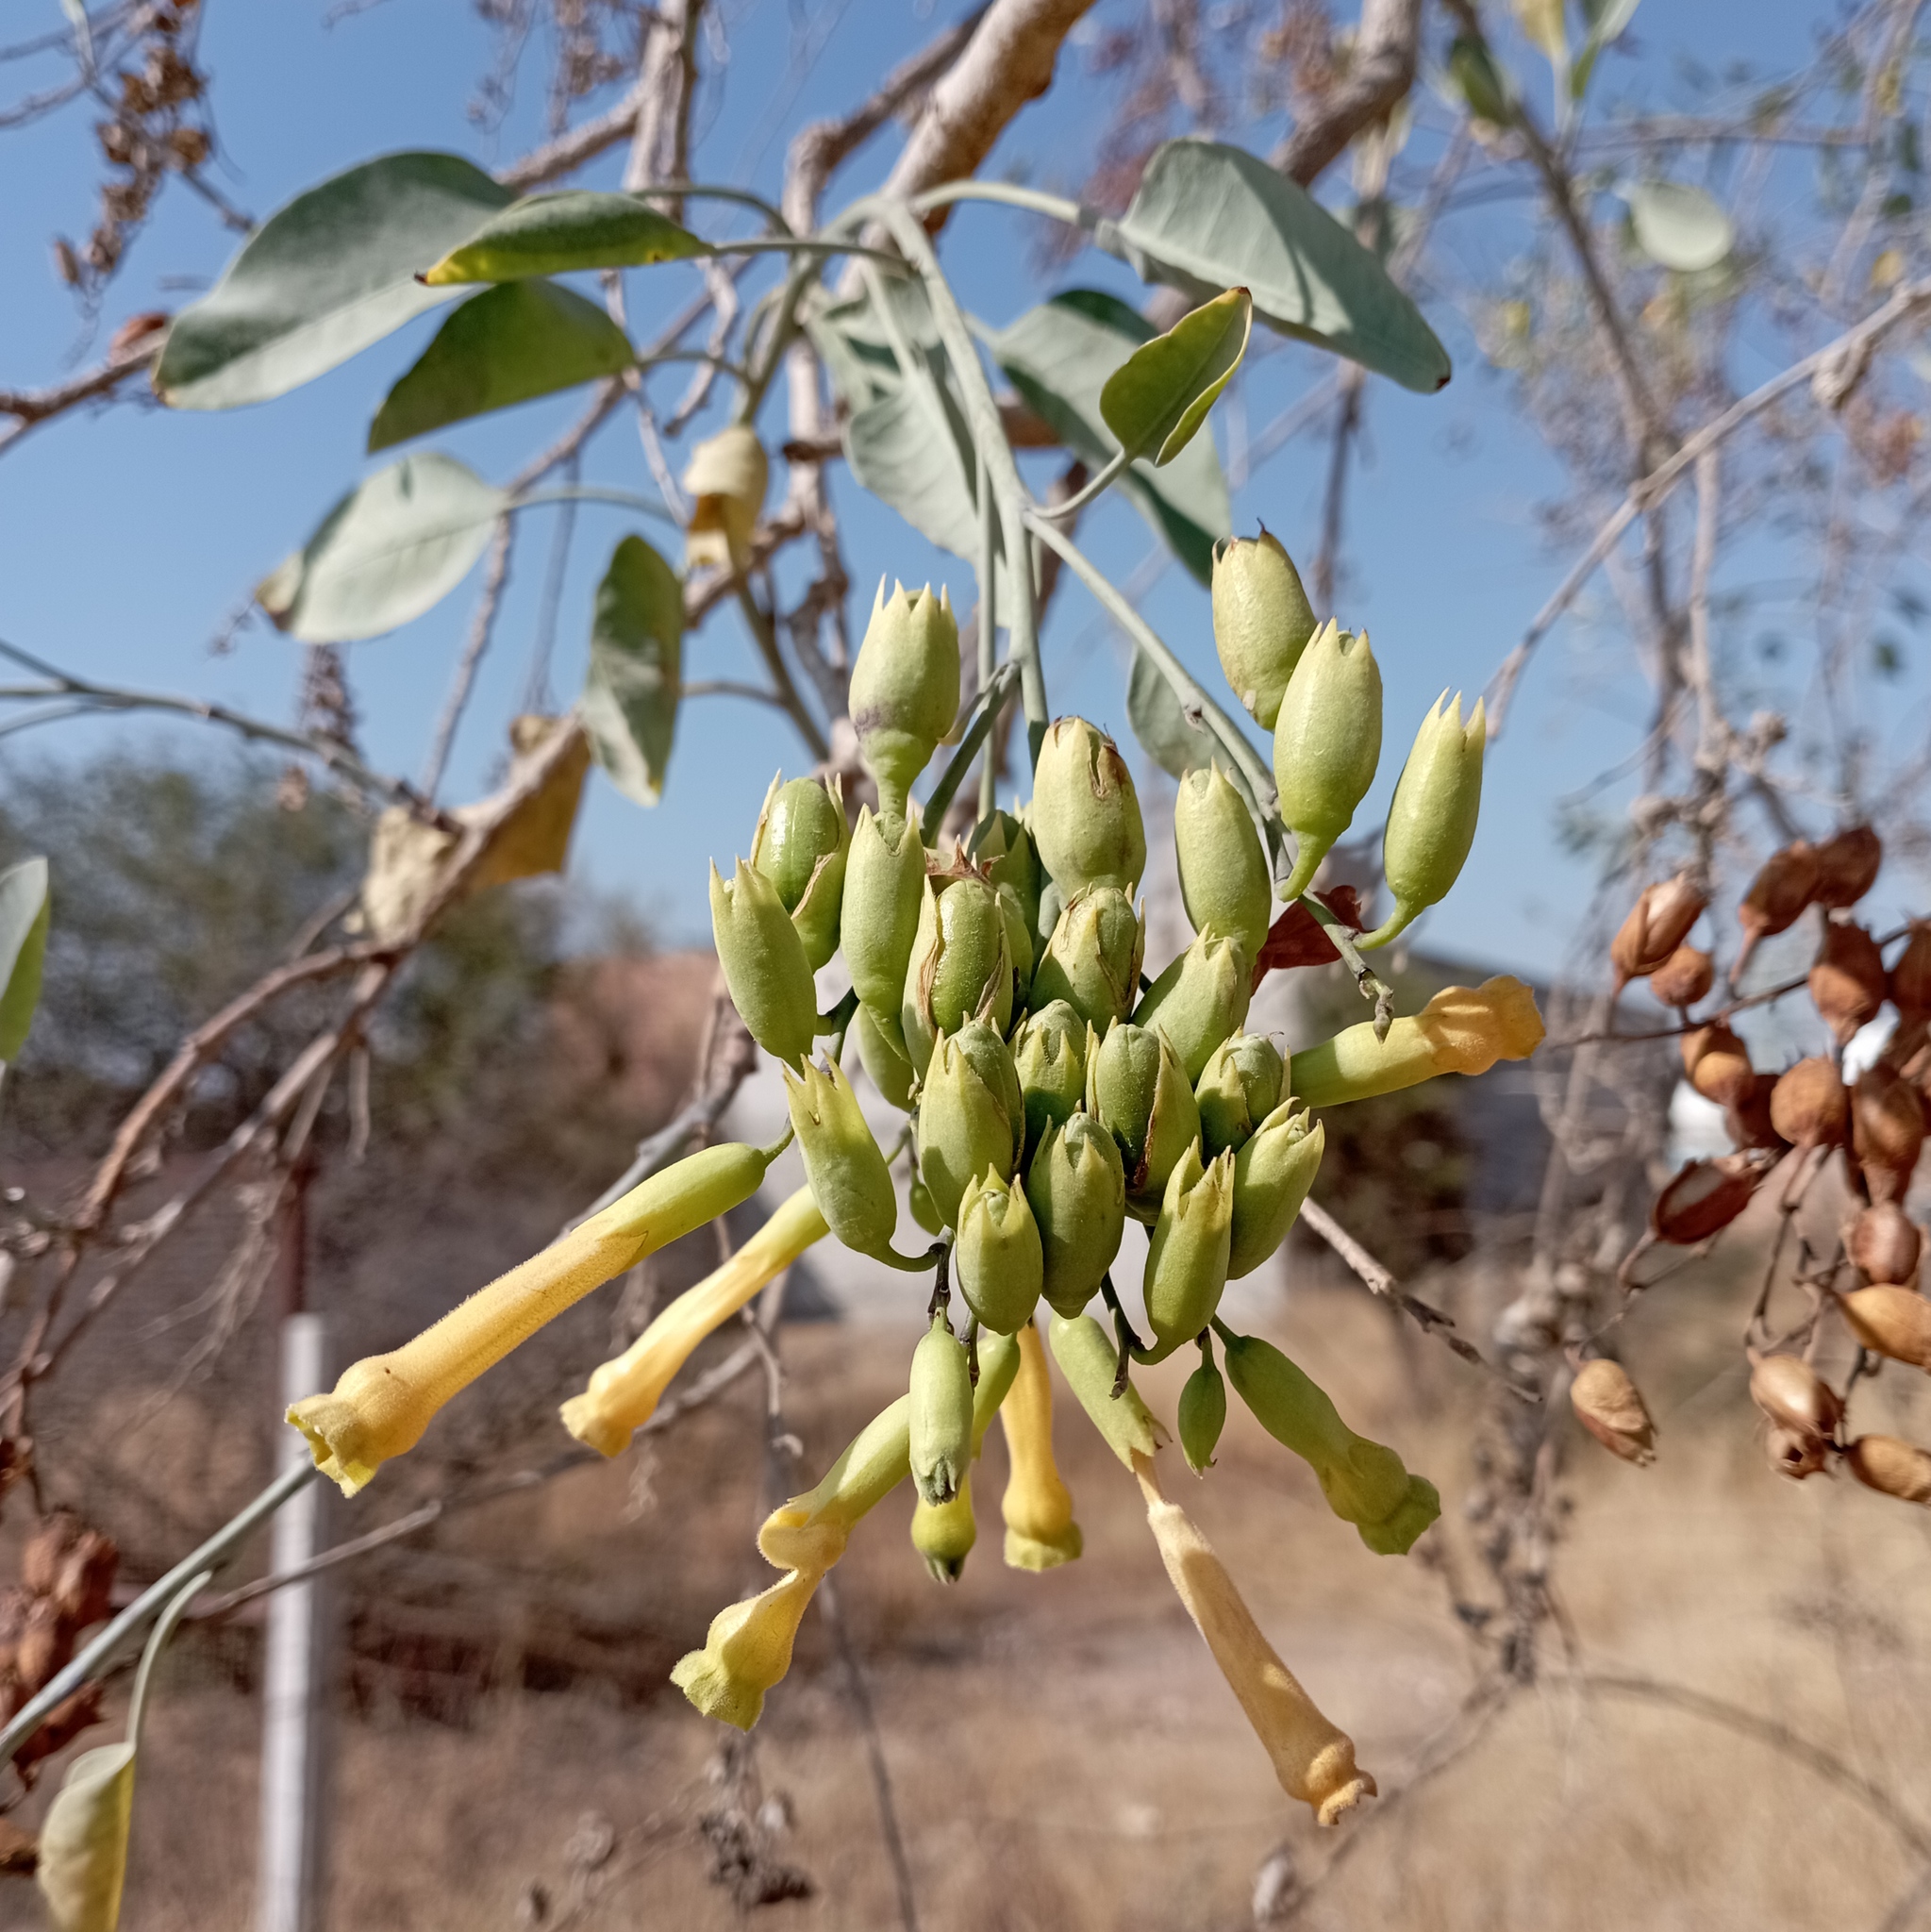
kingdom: Plantae
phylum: Tracheophyta
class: Magnoliopsida
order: Solanales
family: Solanaceae
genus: Nicotiana
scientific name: Nicotiana glauca
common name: Tree tobacco
